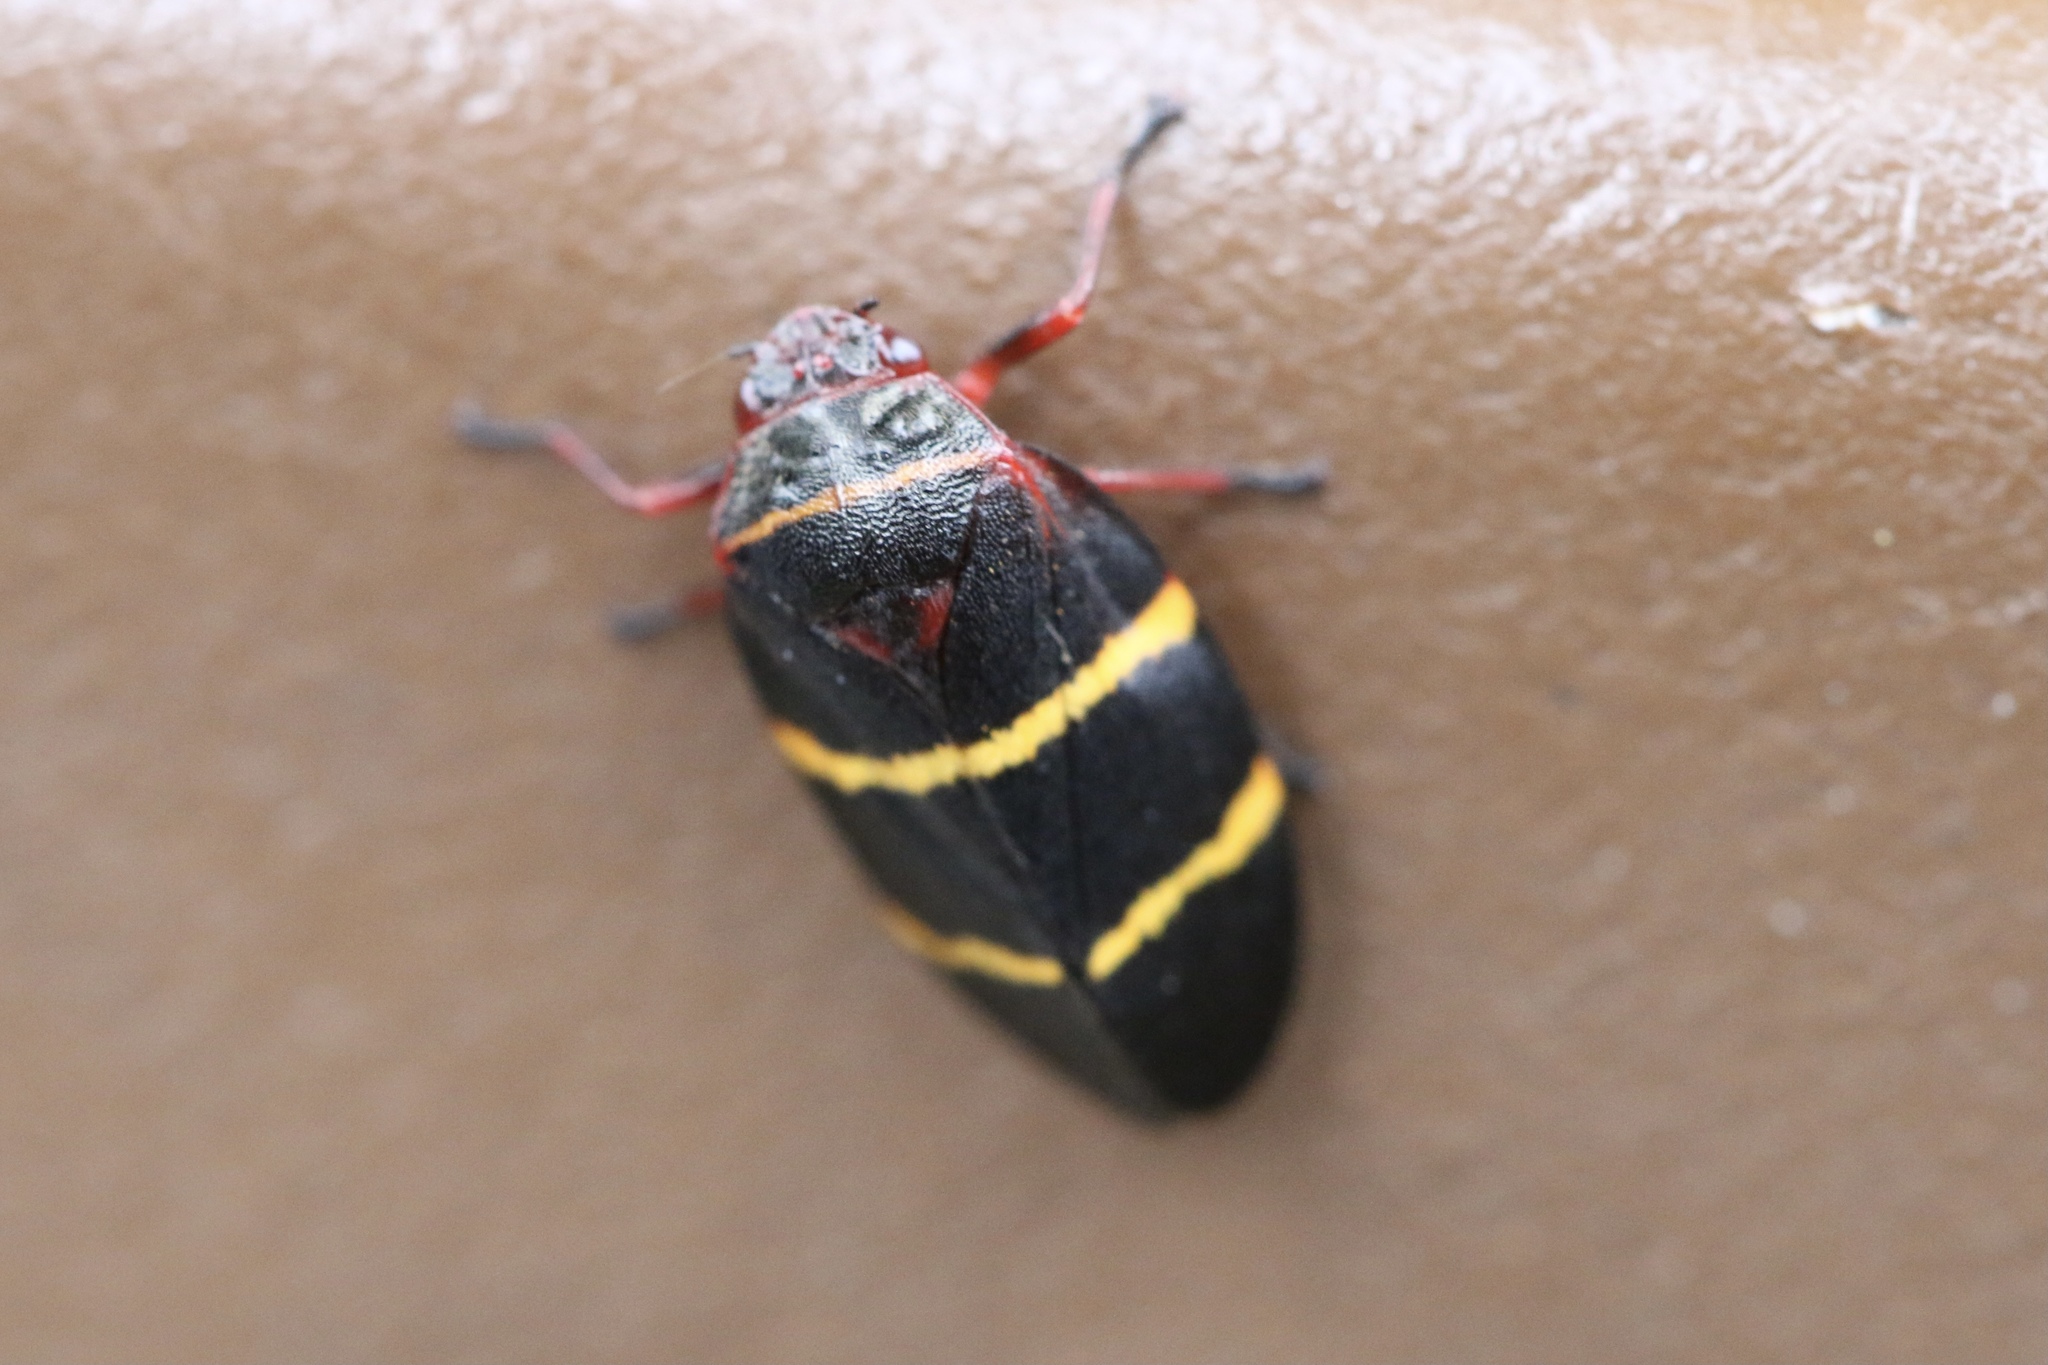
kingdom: Animalia
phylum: Arthropoda
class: Insecta
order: Hemiptera
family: Cercopidae
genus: Prosapia
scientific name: Prosapia bicincta
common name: Twolined spittlebug
